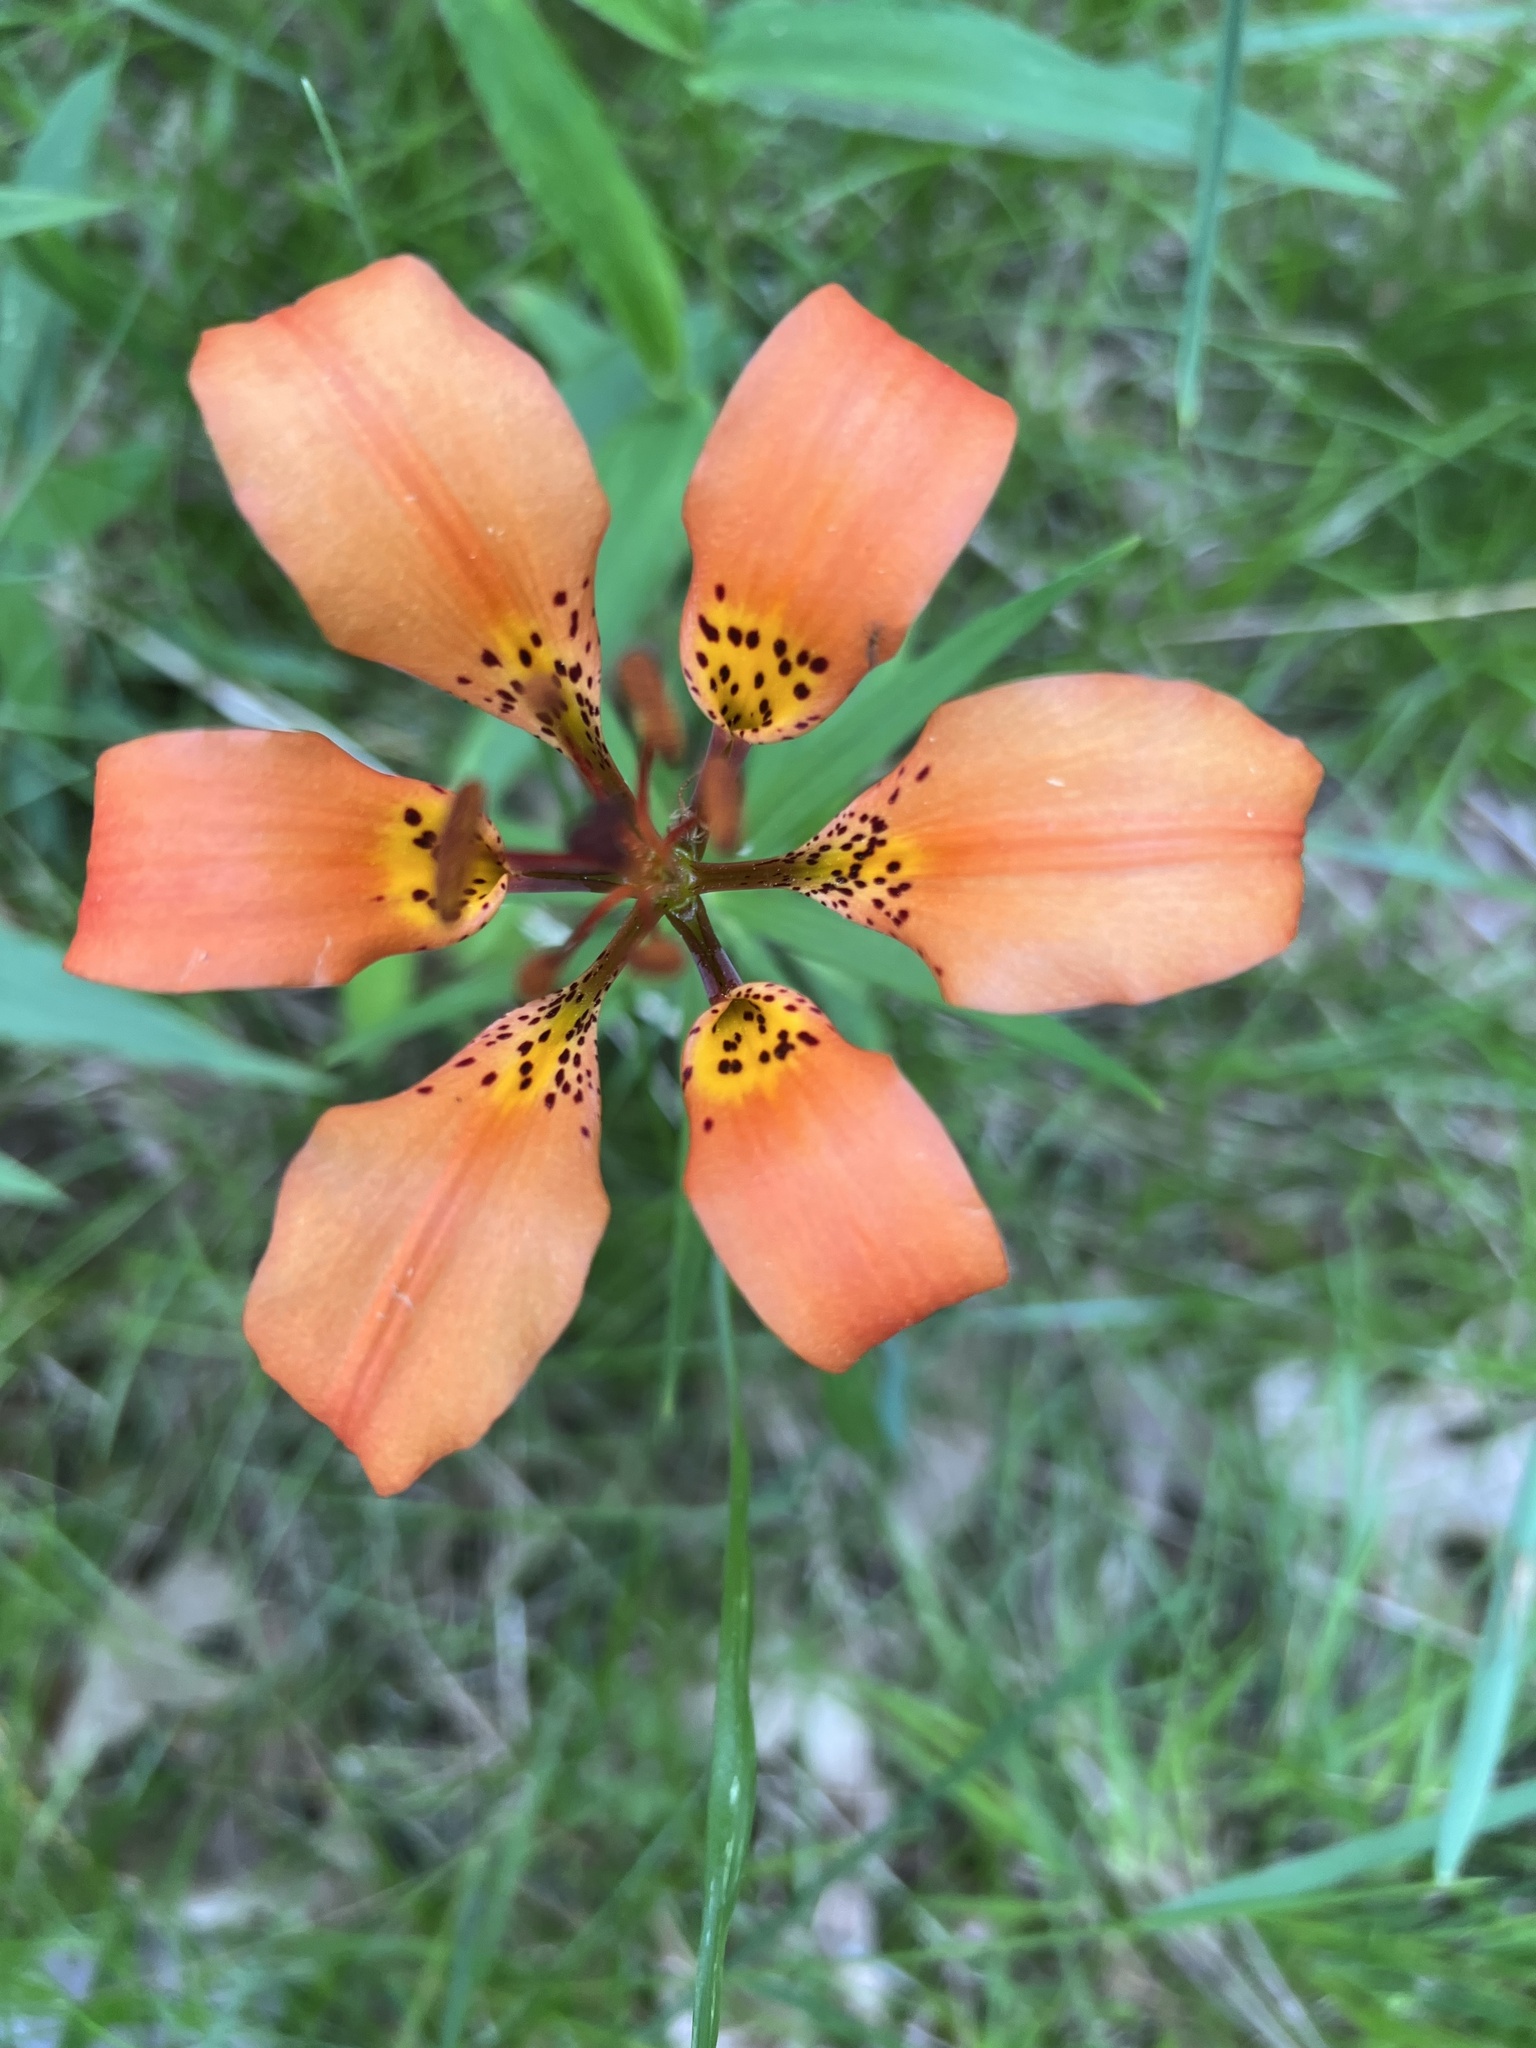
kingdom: Plantae
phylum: Tracheophyta
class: Liliopsida
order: Liliales
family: Liliaceae
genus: Lilium
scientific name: Lilium philadelphicum
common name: Red lily
